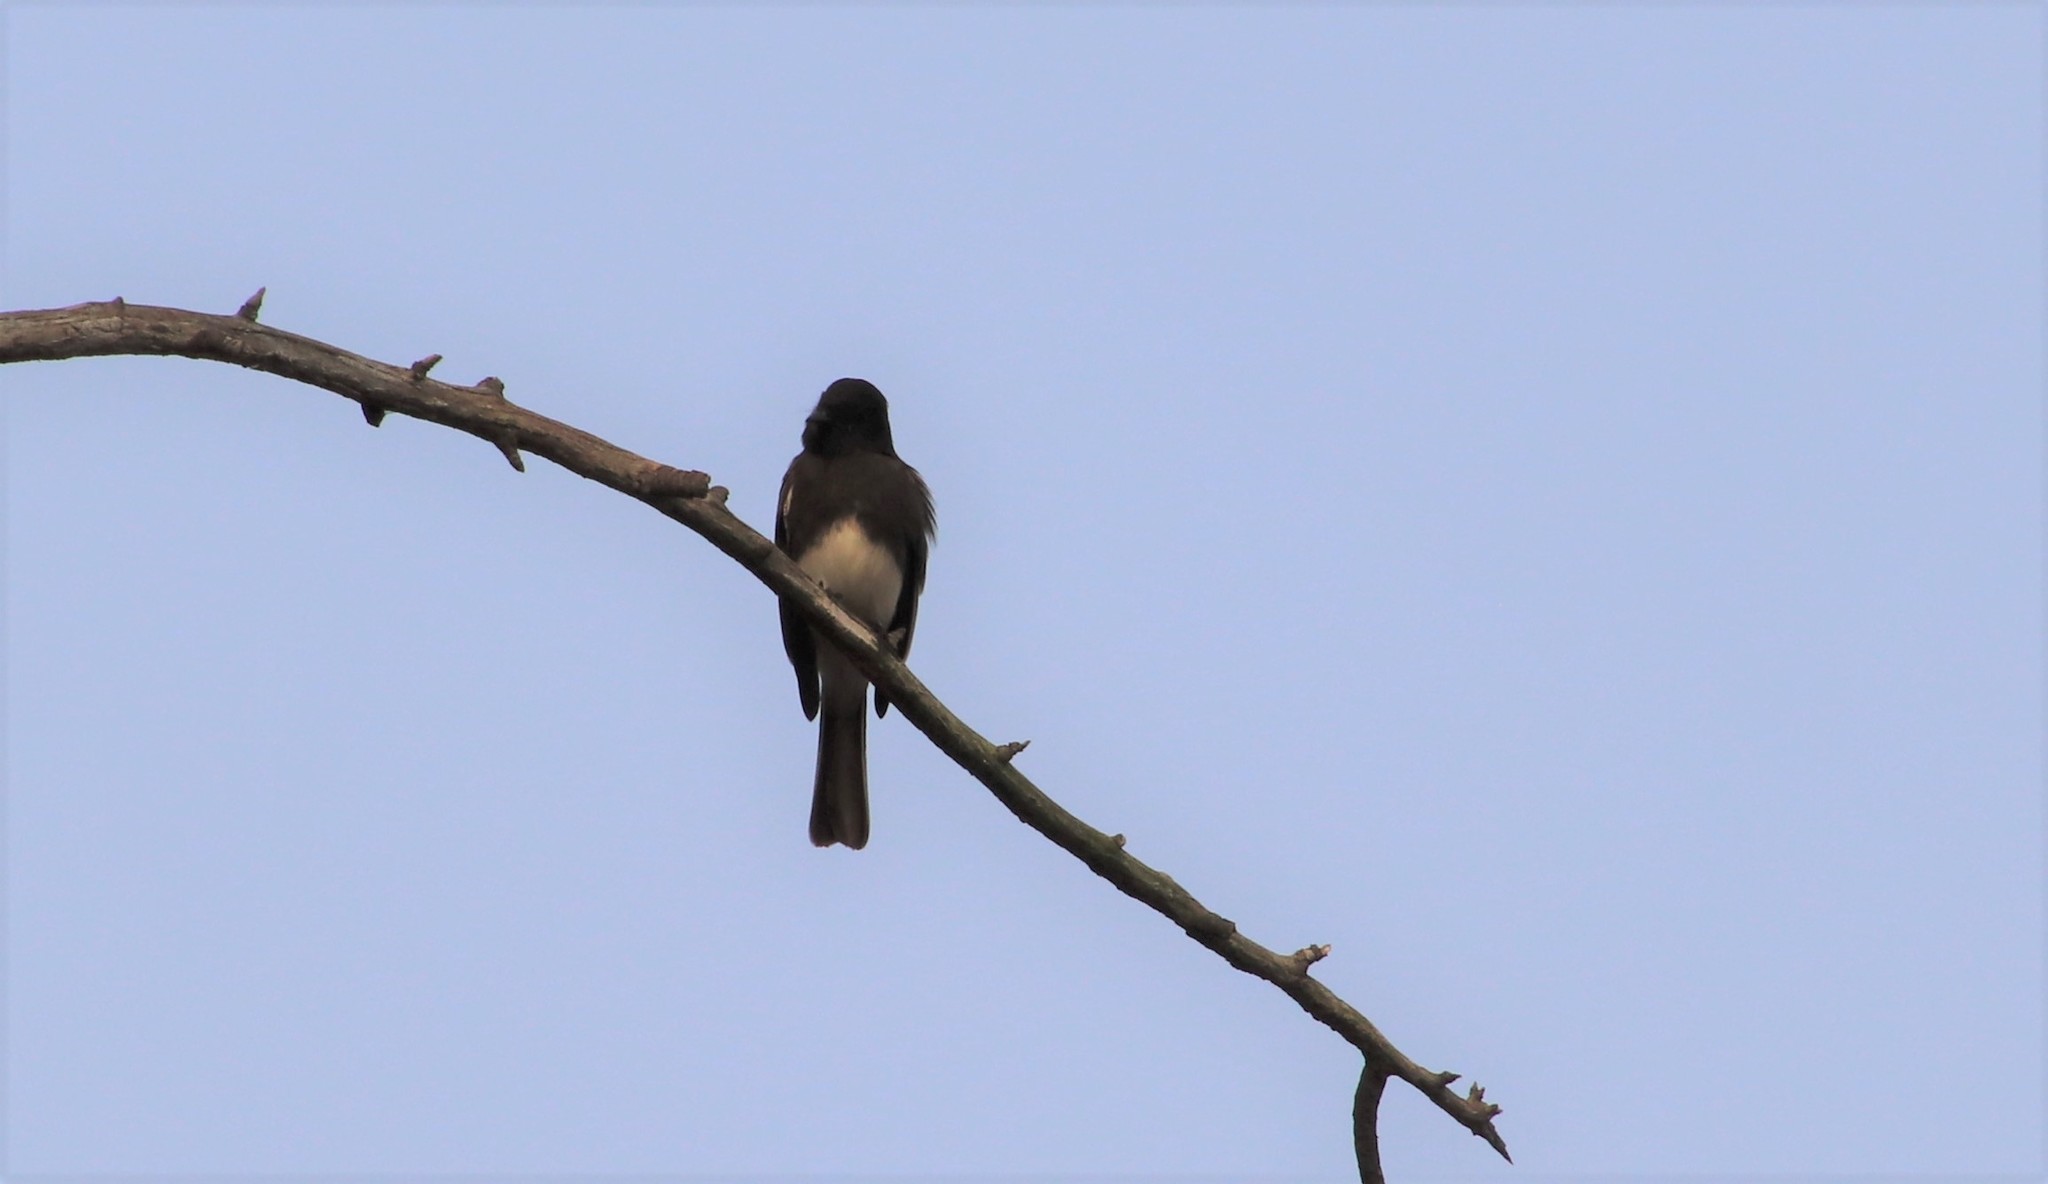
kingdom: Animalia
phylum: Chordata
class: Aves
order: Passeriformes
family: Tyrannidae
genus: Sayornis
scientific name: Sayornis nigricans
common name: Black phoebe
